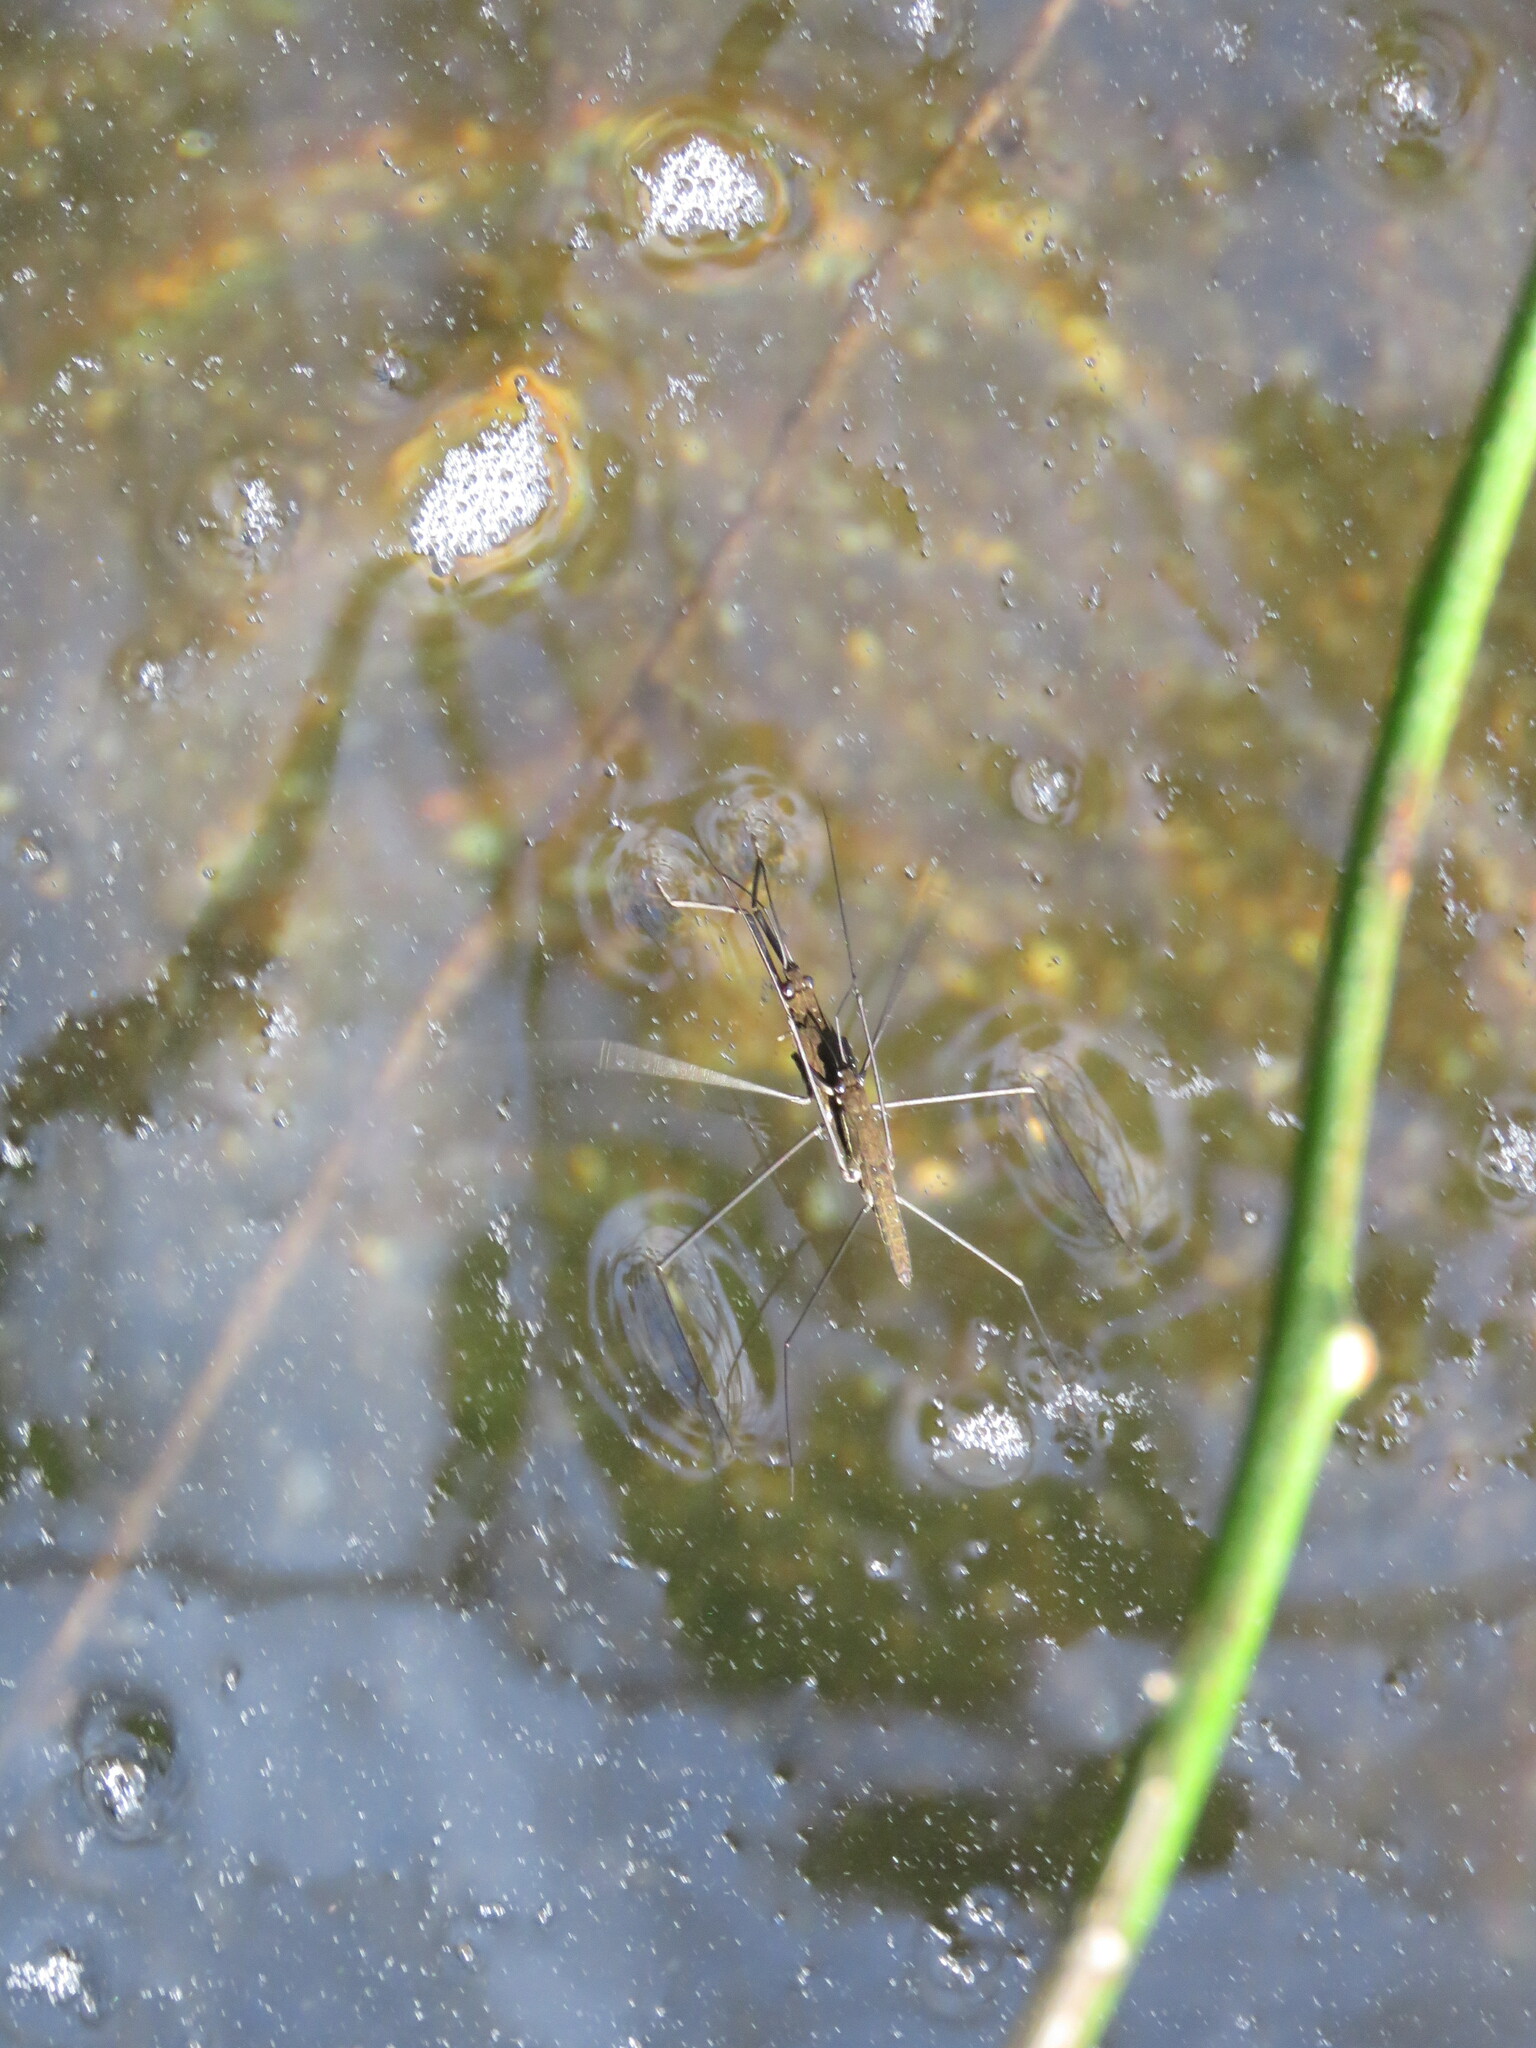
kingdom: Animalia
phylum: Arthropoda
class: Insecta
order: Hemiptera
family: Gerridae
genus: Aquarius
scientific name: Aquarius najas
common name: River skater
